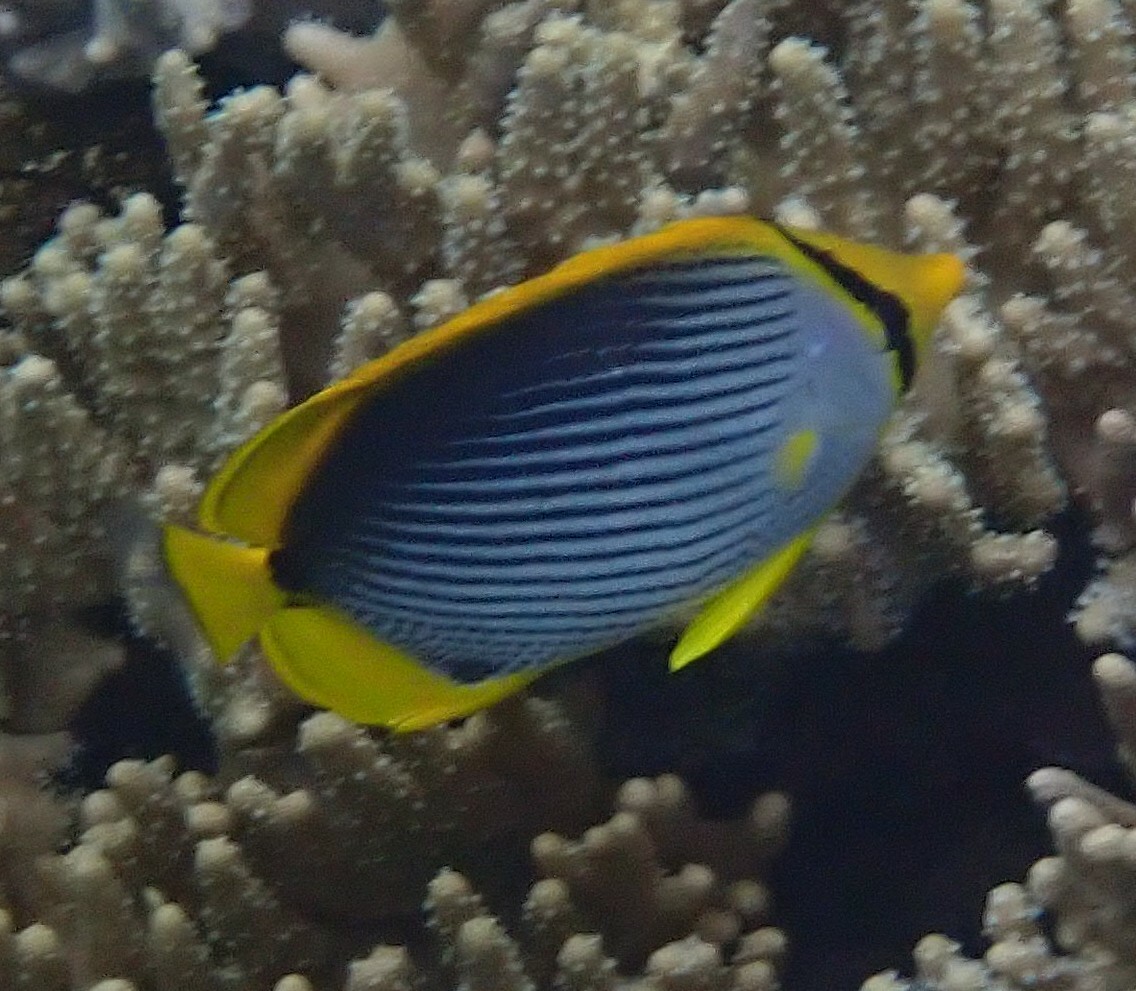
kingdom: Animalia
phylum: Chordata
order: Perciformes
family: Chaetodontidae
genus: Chaetodon
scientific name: Chaetodon melannotus
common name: Blackback butterflyfish
